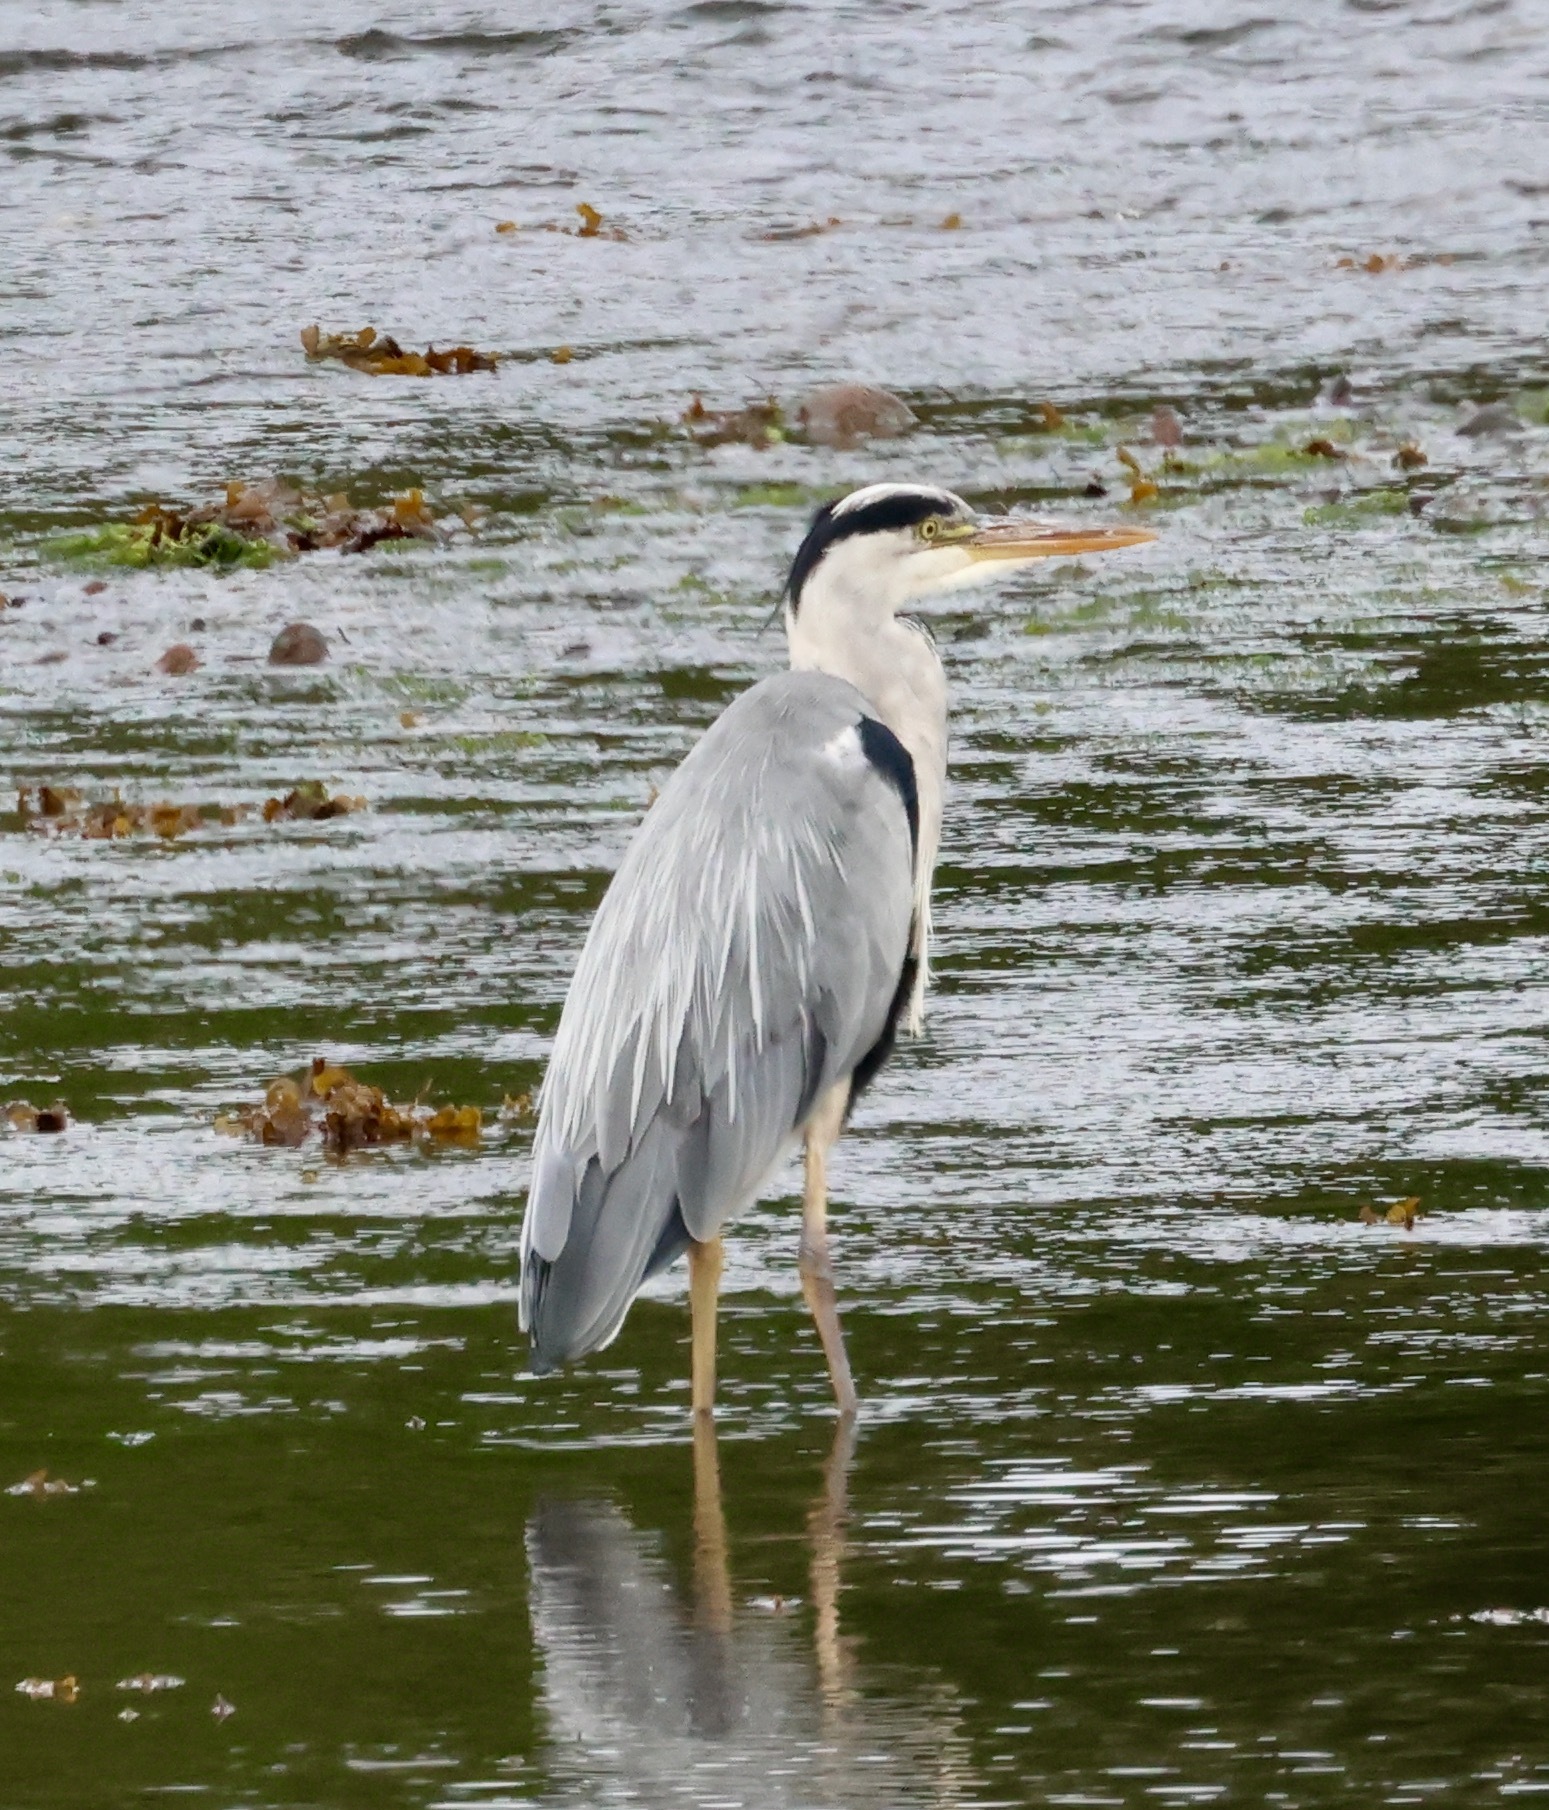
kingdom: Animalia
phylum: Chordata
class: Aves
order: Pelecaniformes
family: Ardeidae
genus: Ardea
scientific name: Ardea cinerea
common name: Grey heron
